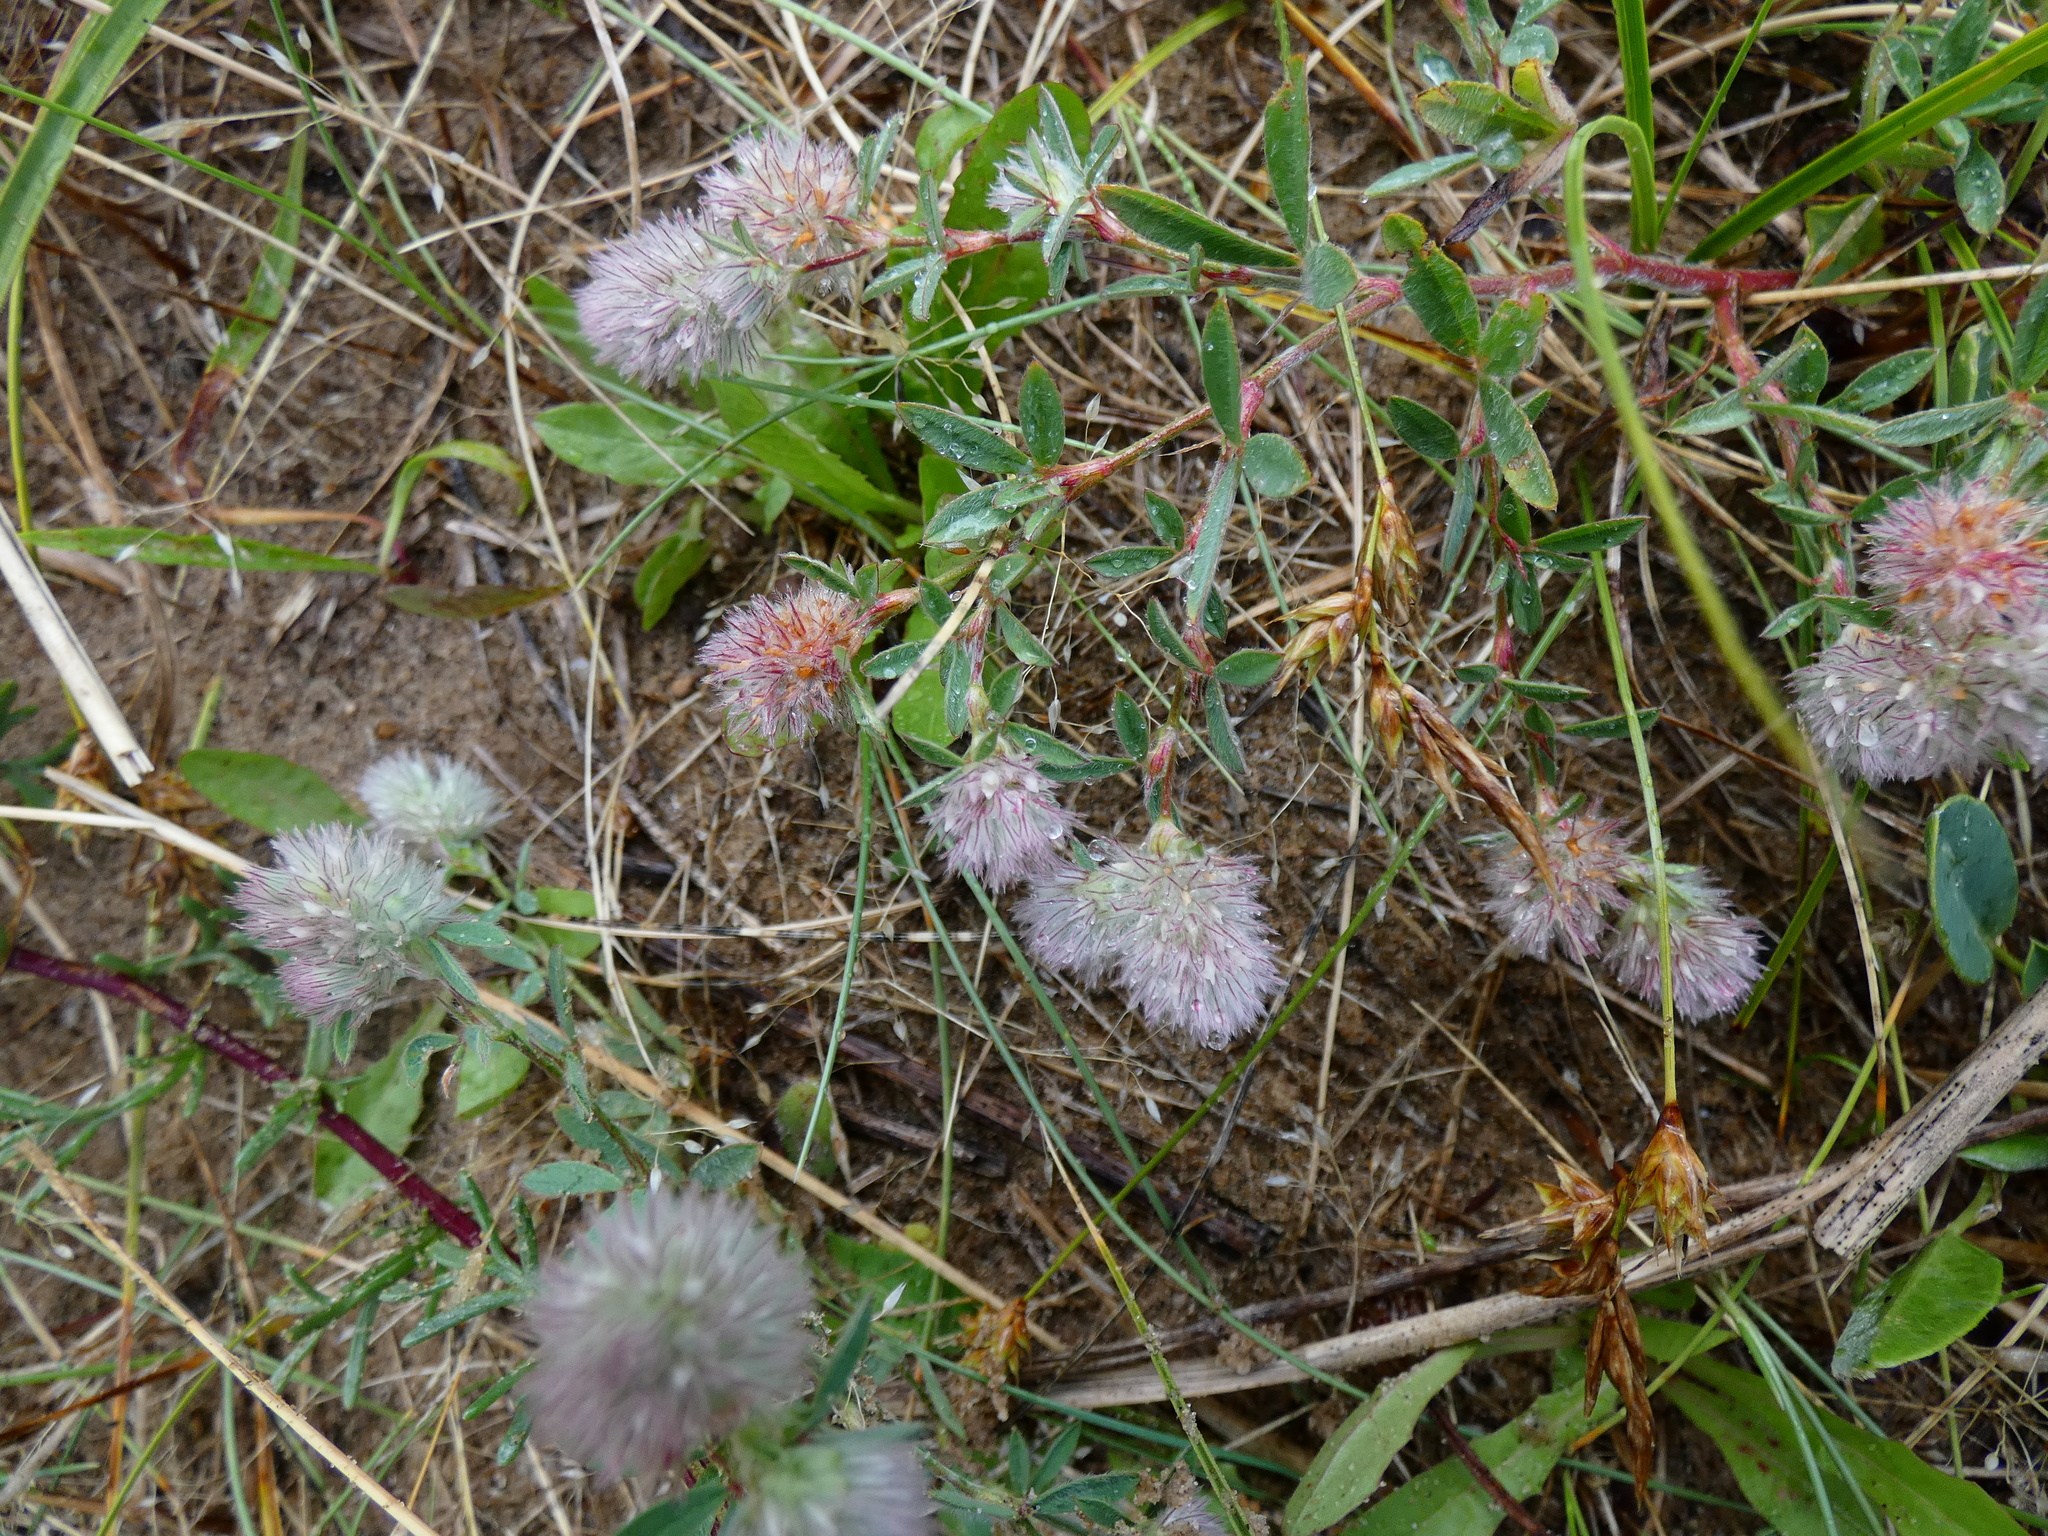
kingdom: Plantae
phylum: Tracheophyta
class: Magnoliopsida
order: Fabales
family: Fabaceae
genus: Trifolium
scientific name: Trifolium arvense
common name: Hare's-foot clover
